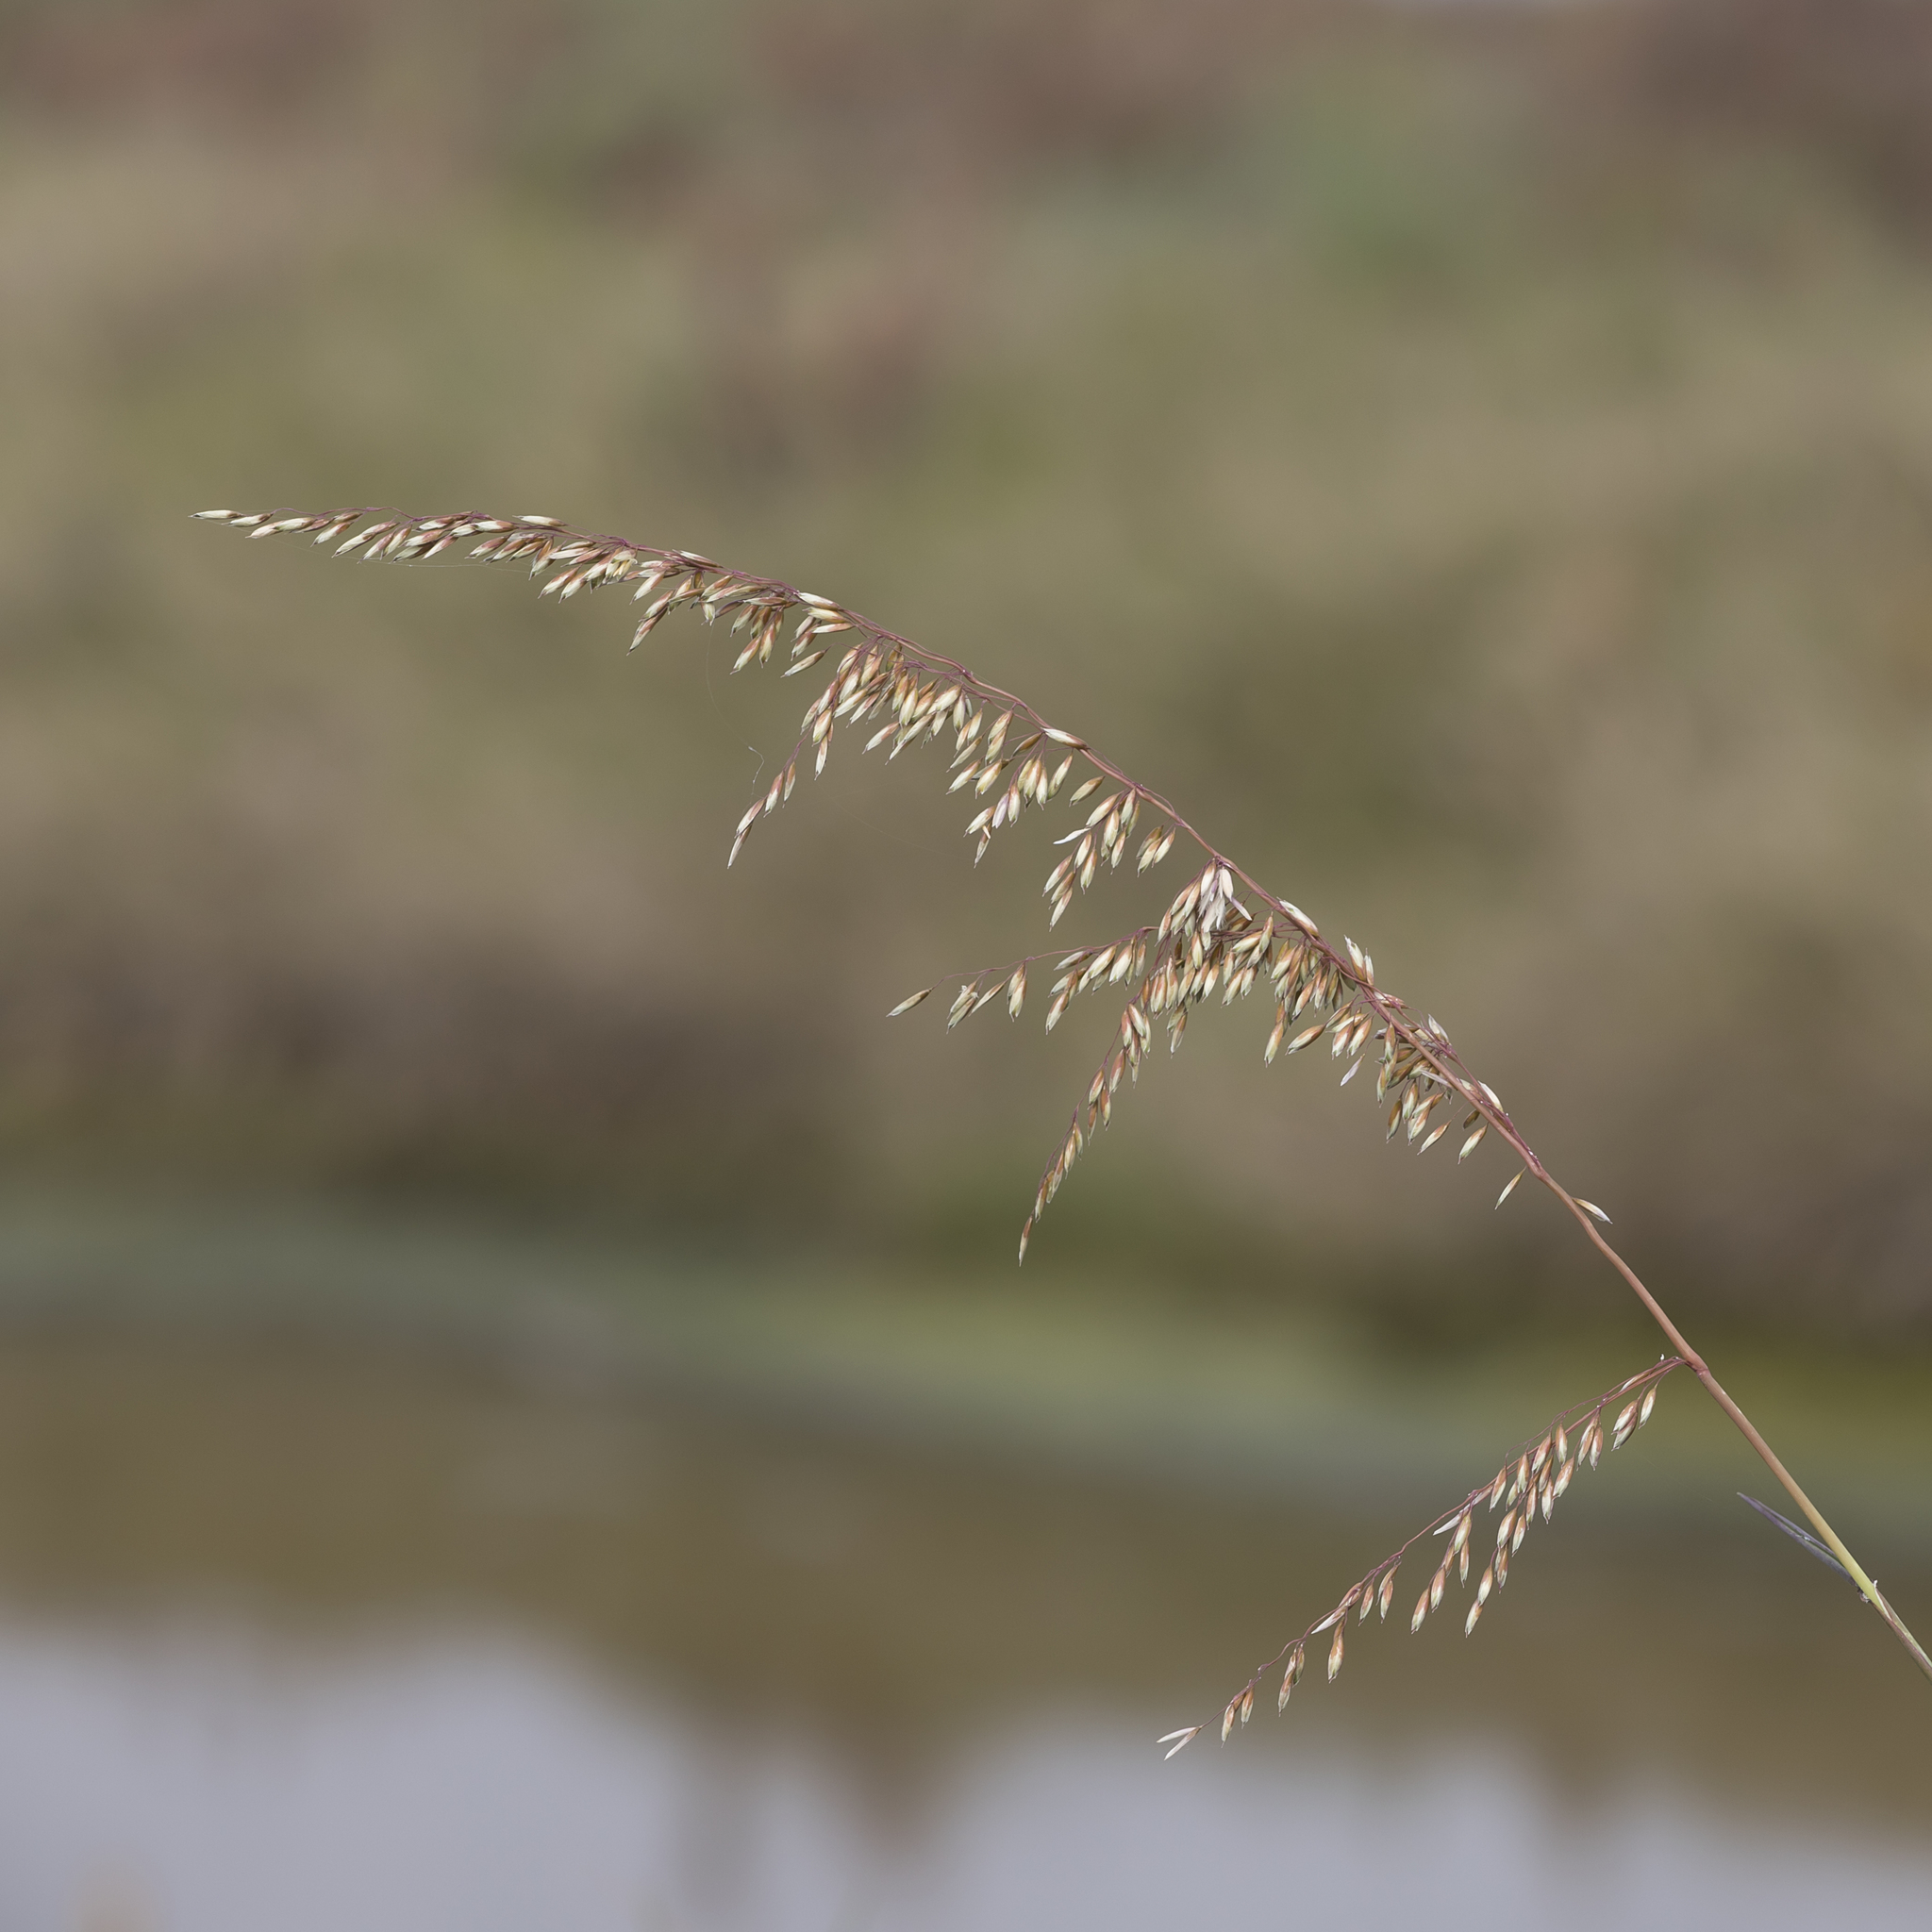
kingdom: Plantae
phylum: Tracheophyta
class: Liliopsida
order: Poales
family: Poaceae
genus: Ehrharta
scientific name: Ehrharta calycina
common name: Perennial veldtgrass
